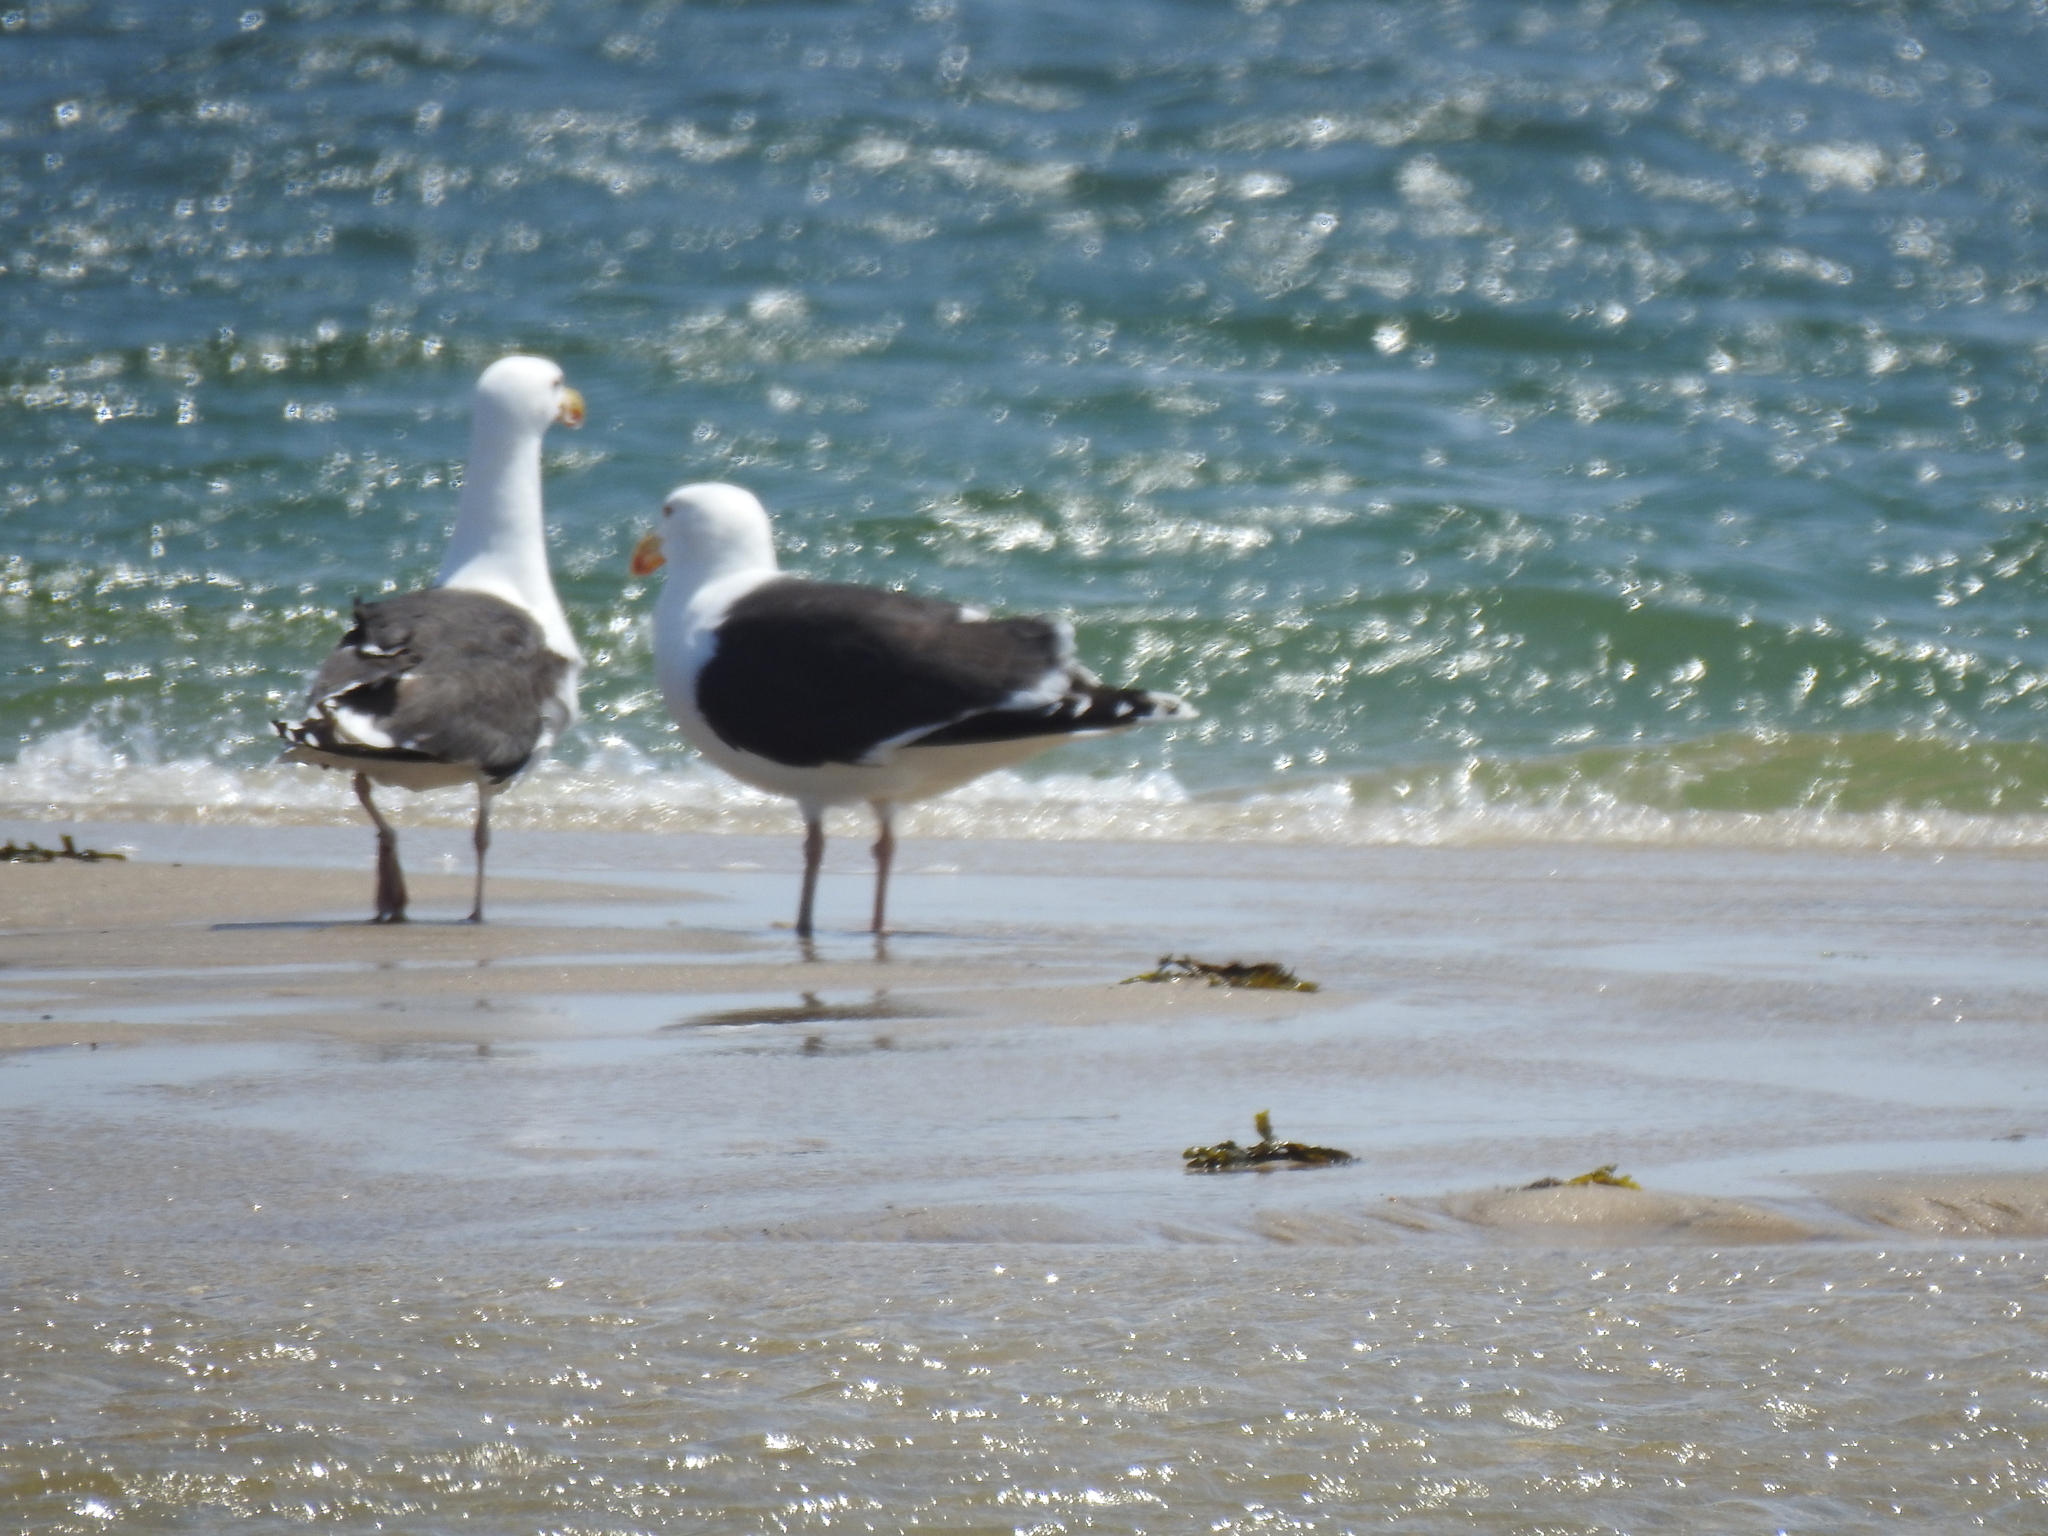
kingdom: Animalia
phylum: Chordata
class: Aves
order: Charadriiformes
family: Laridae
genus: Larus
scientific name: Larus marinus
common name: Great black-backed gull
